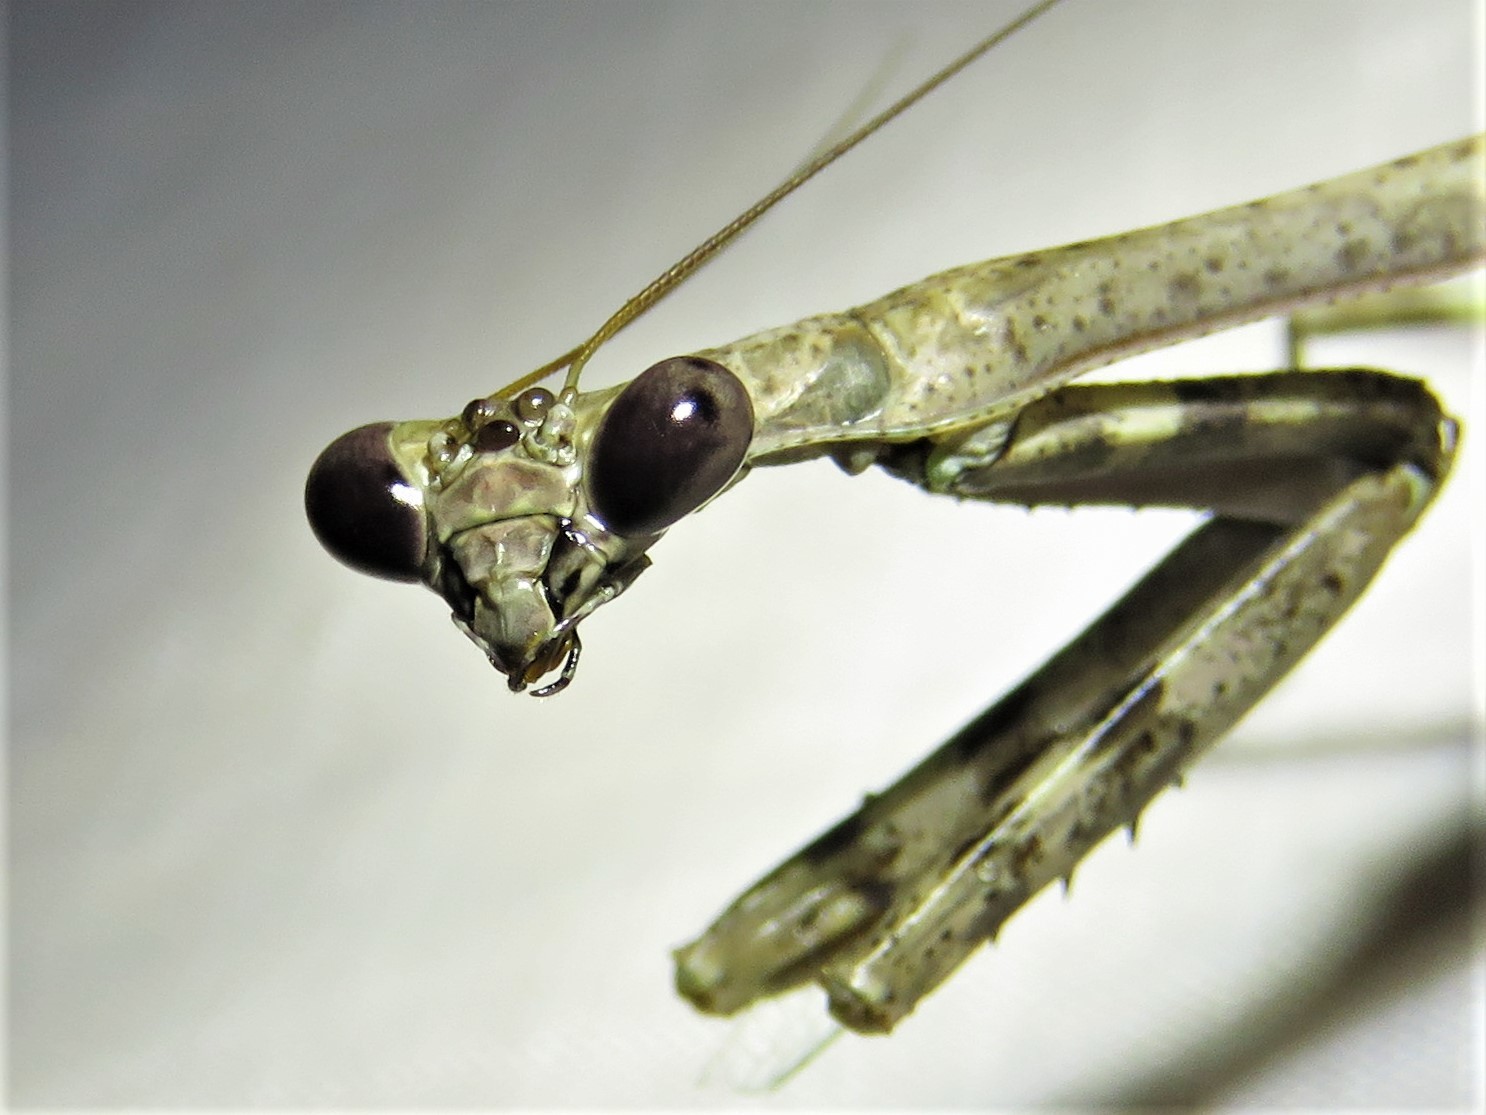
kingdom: Animalia
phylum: Arthropoda
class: Insecta
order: Mantodea
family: Mantidae
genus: Stagmomantis
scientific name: Stagmomantis carolina
